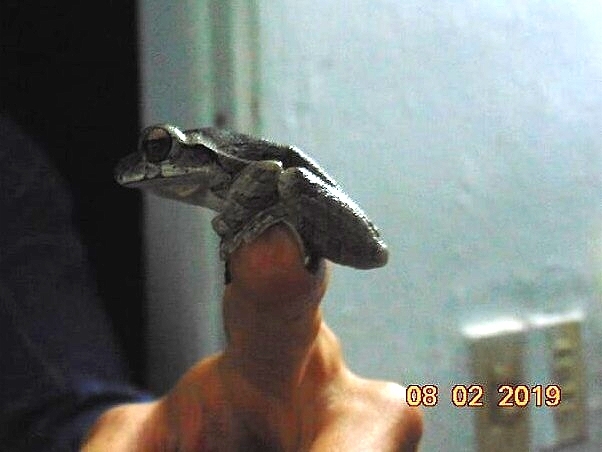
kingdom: Animalia
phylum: Chordata
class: Amphibia
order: Anura
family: Hylidae
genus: Smilisca
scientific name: Smilisca baudinii
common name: Mexican smilisca
